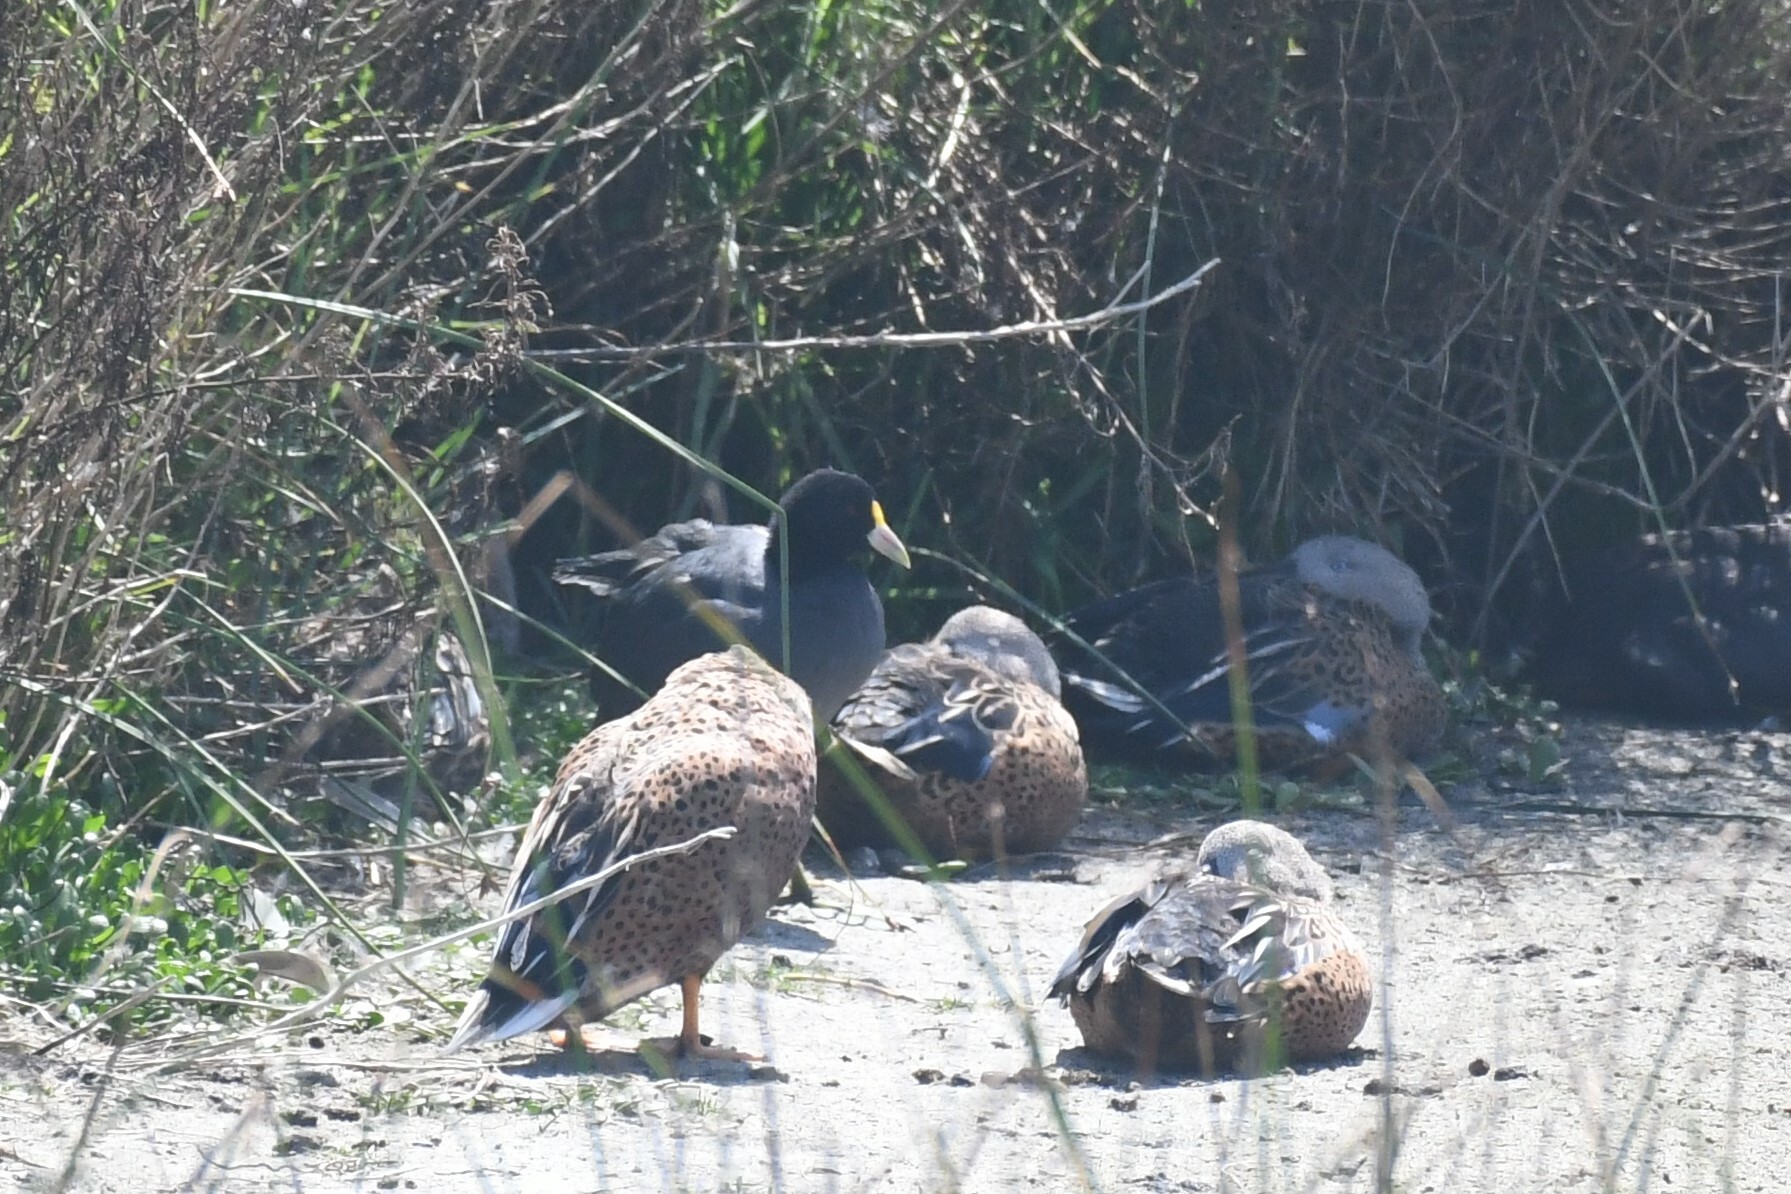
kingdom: Animalia
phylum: Chordata
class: Aves
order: Gruiformes
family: Rallidae
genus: Fulica
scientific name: Fulica leucoptera
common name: White-winged coot
